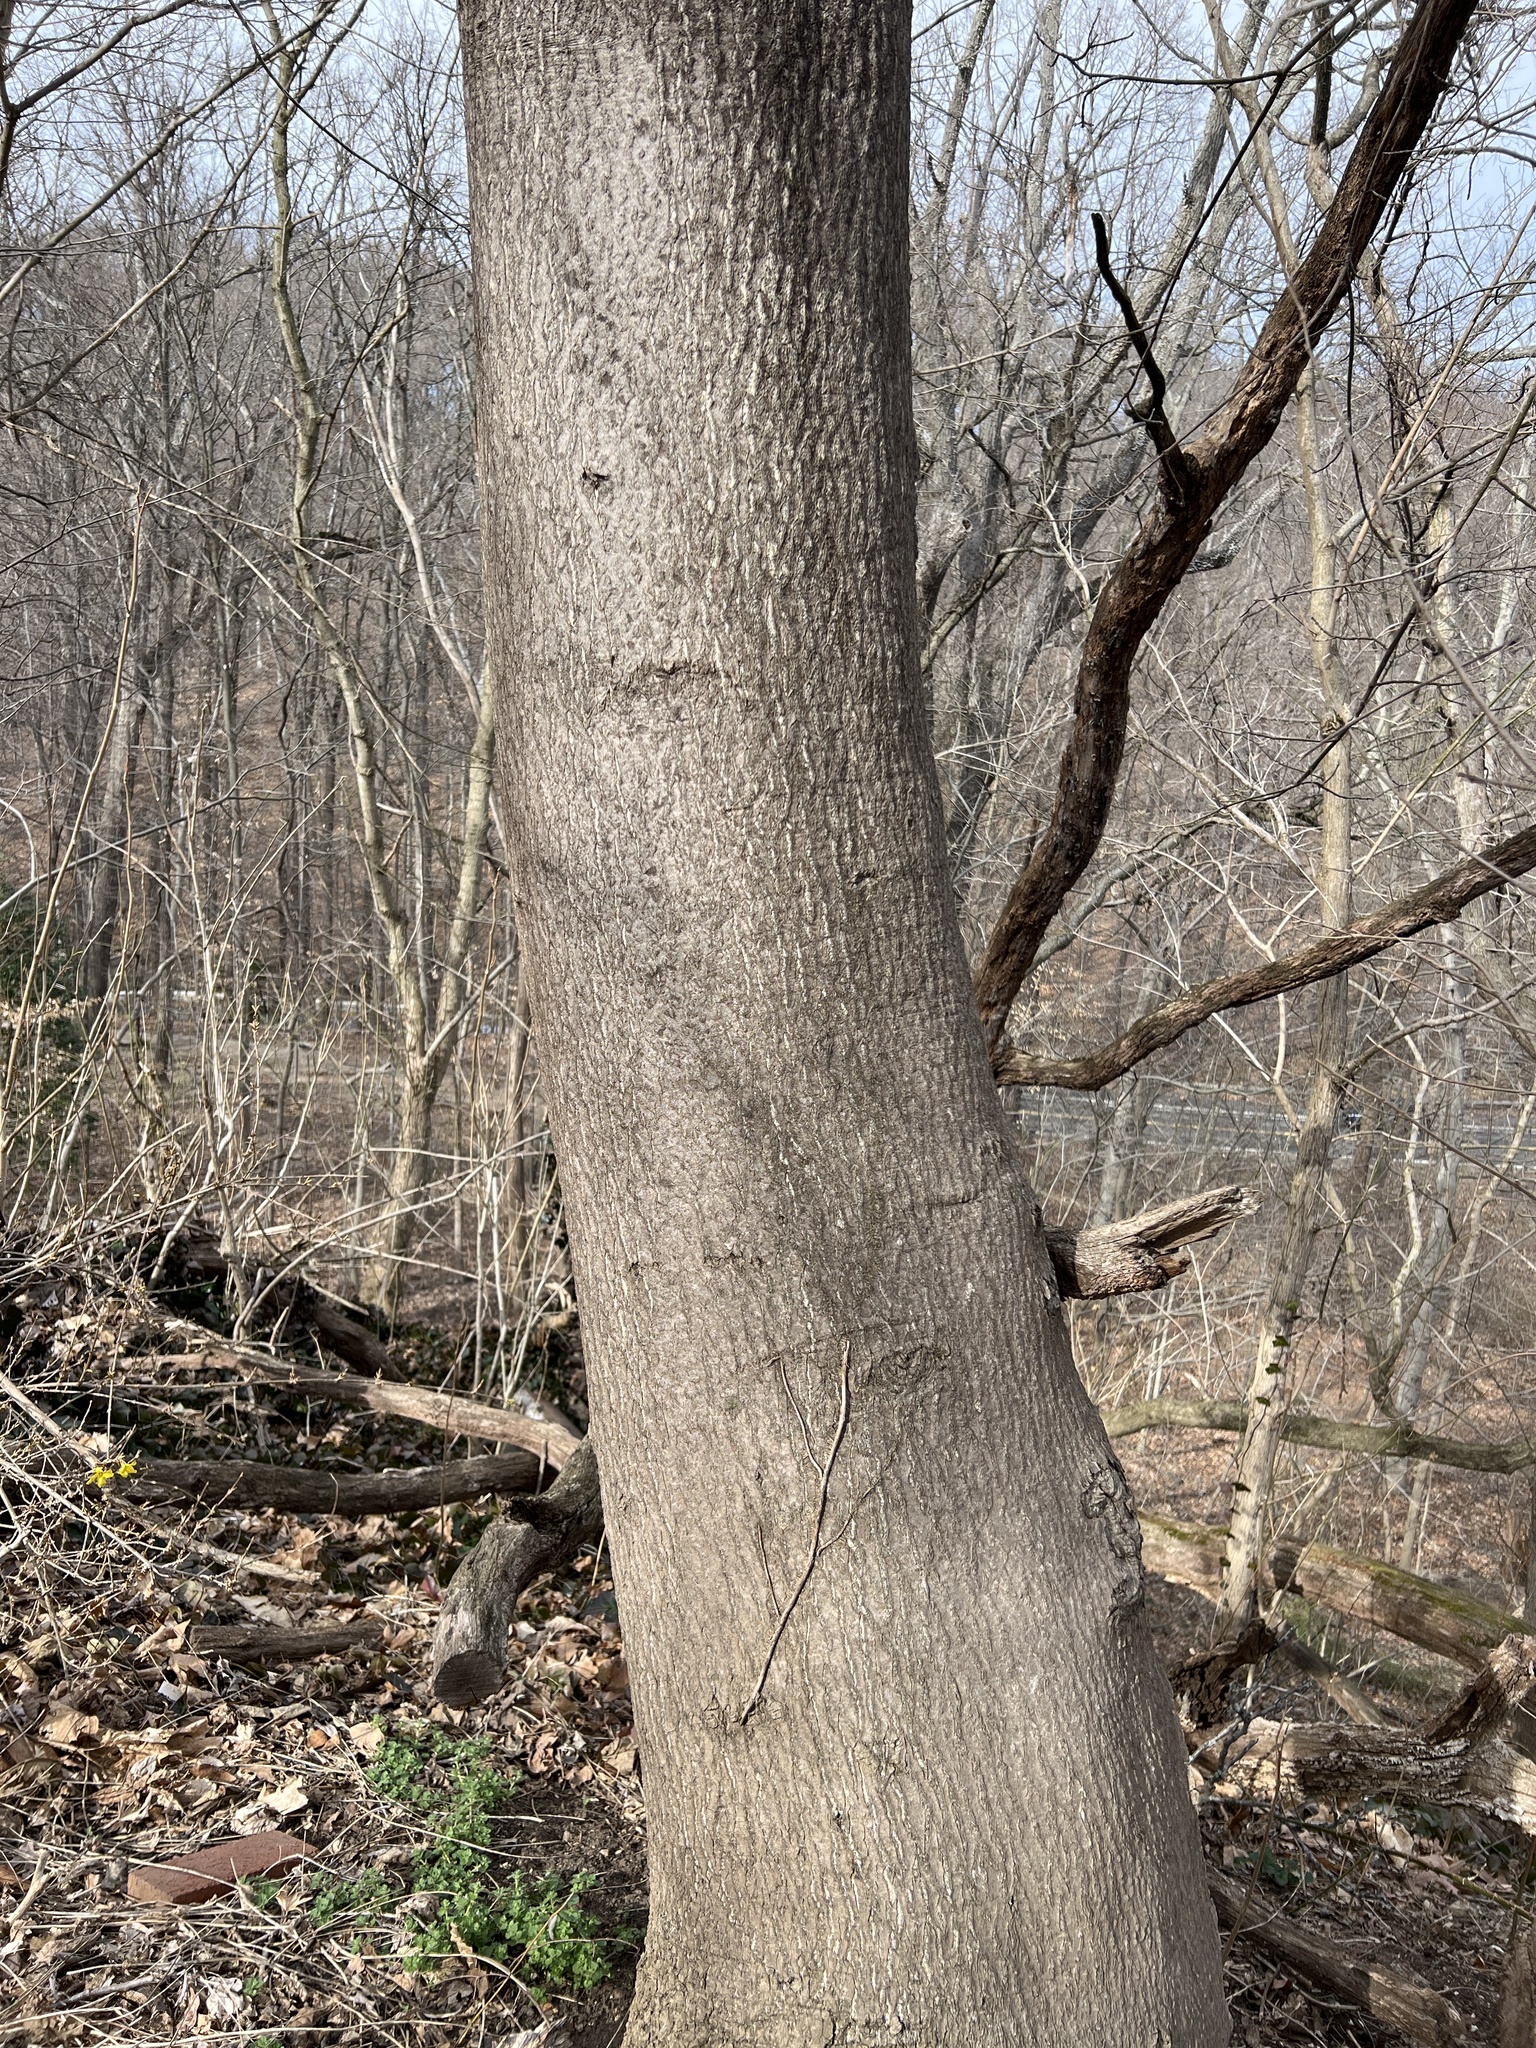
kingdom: Plantae
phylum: Tracheophyta
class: Magnoliopsida
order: Sapindales
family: Simaroubaceae
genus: Ailanthus
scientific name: Ailanthus altissima
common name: Tree-of-heaven
